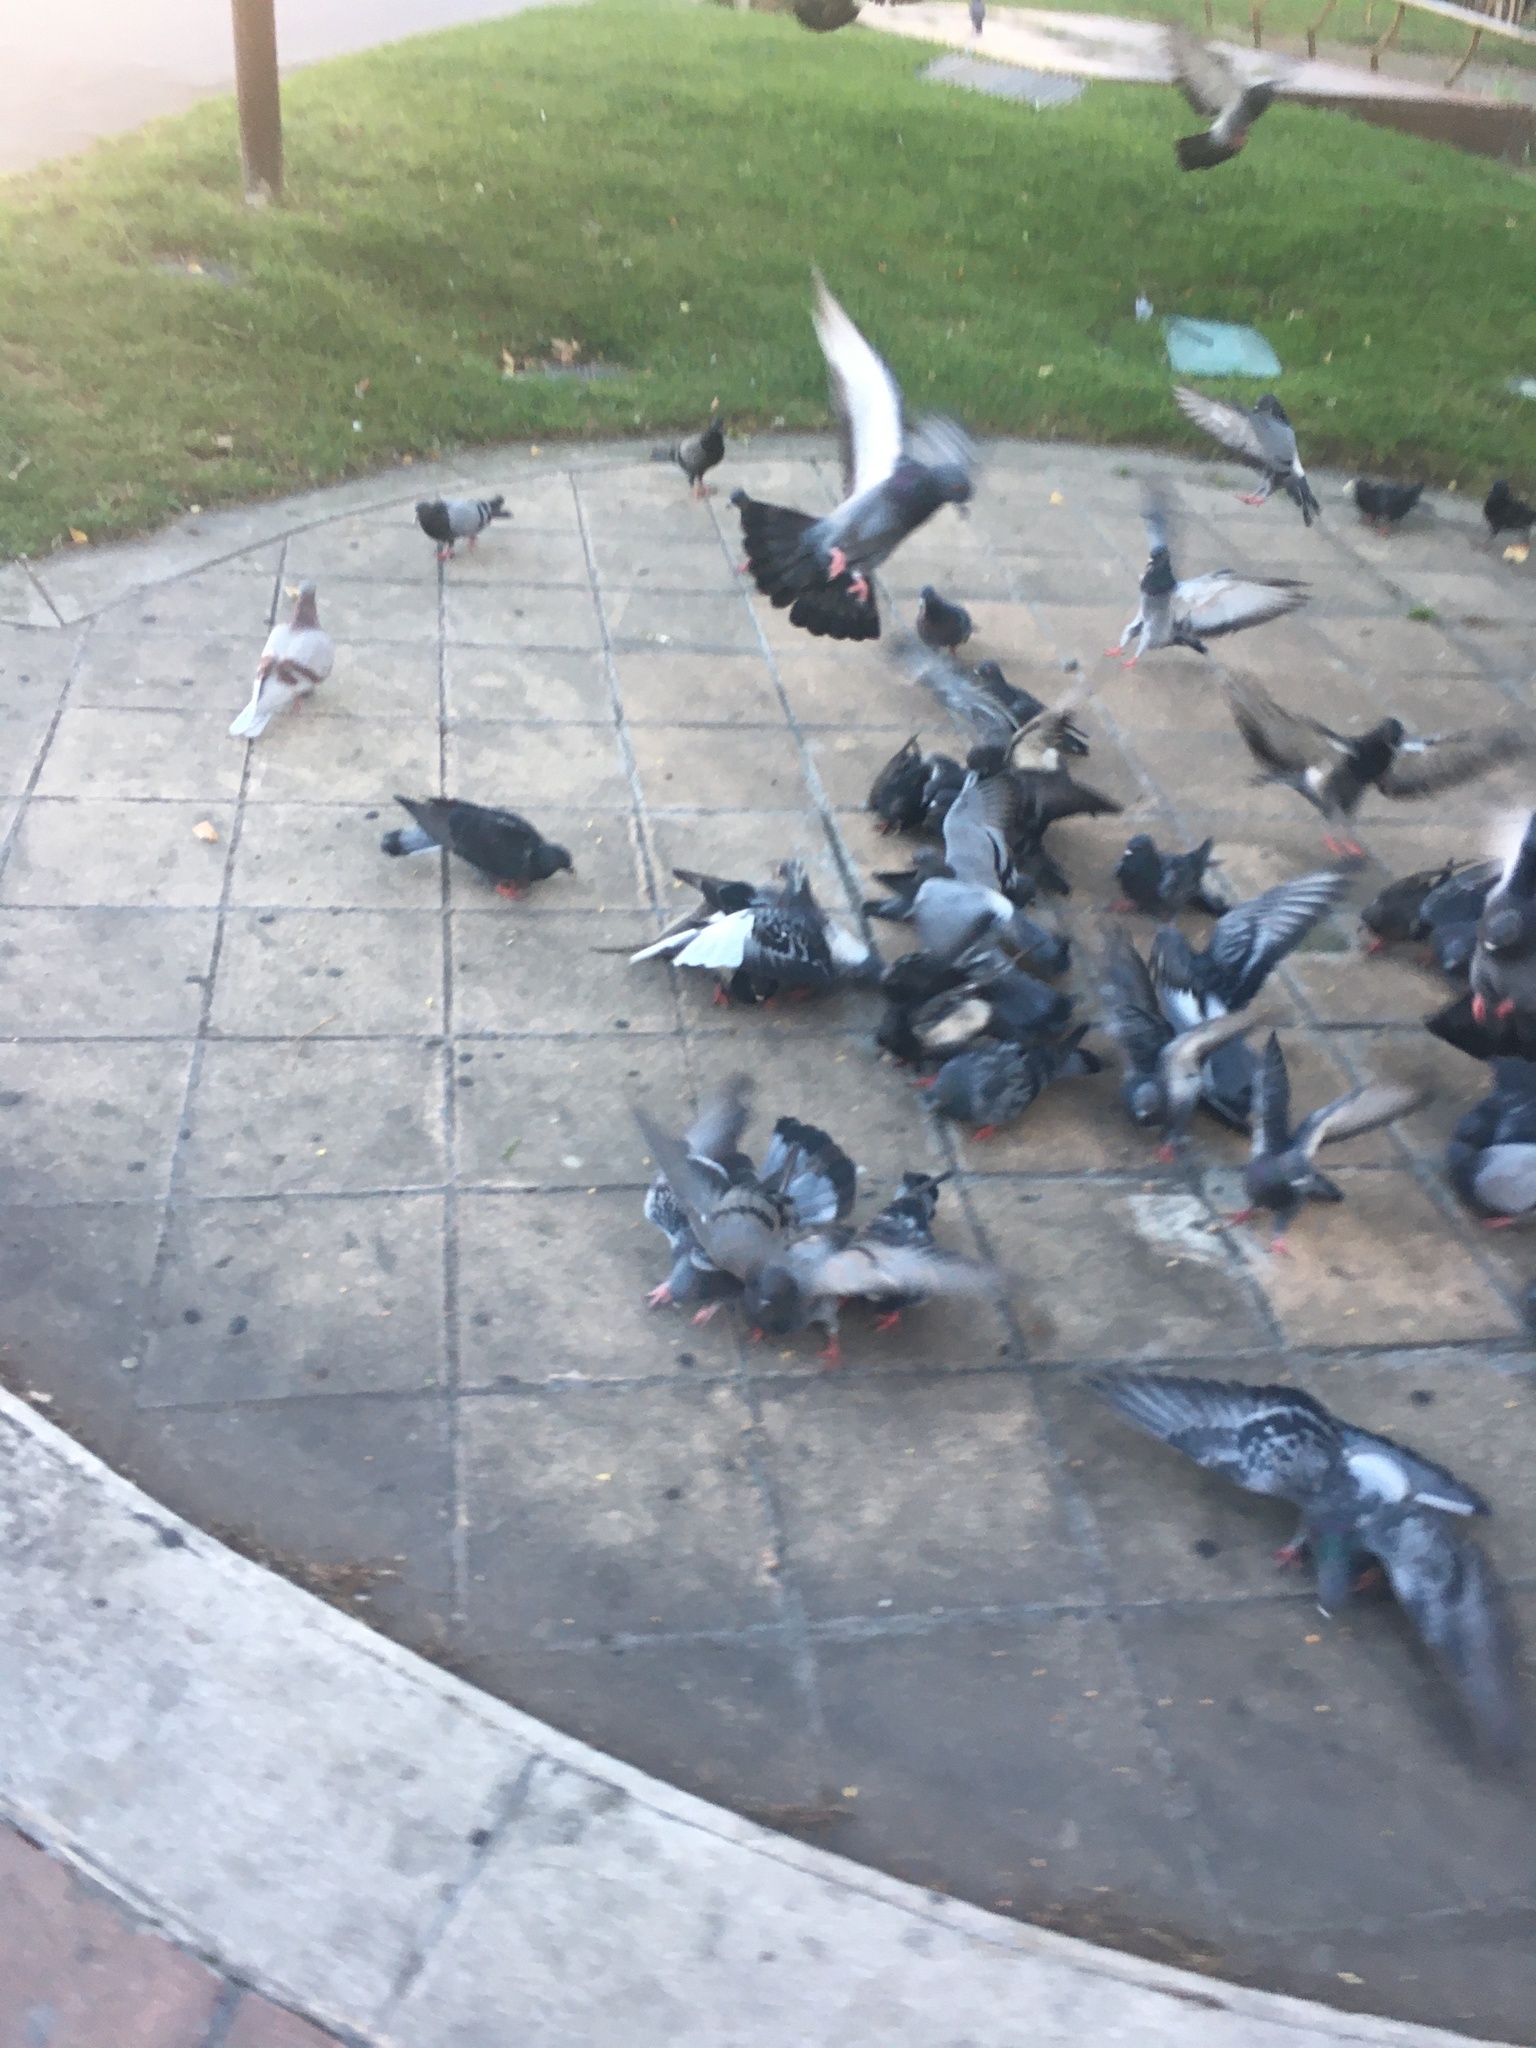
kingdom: Animalia
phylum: Chordata
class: Aves
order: Columbiformes
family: Columbidae
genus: Columba
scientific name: Columba livia
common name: Rock pigeon
